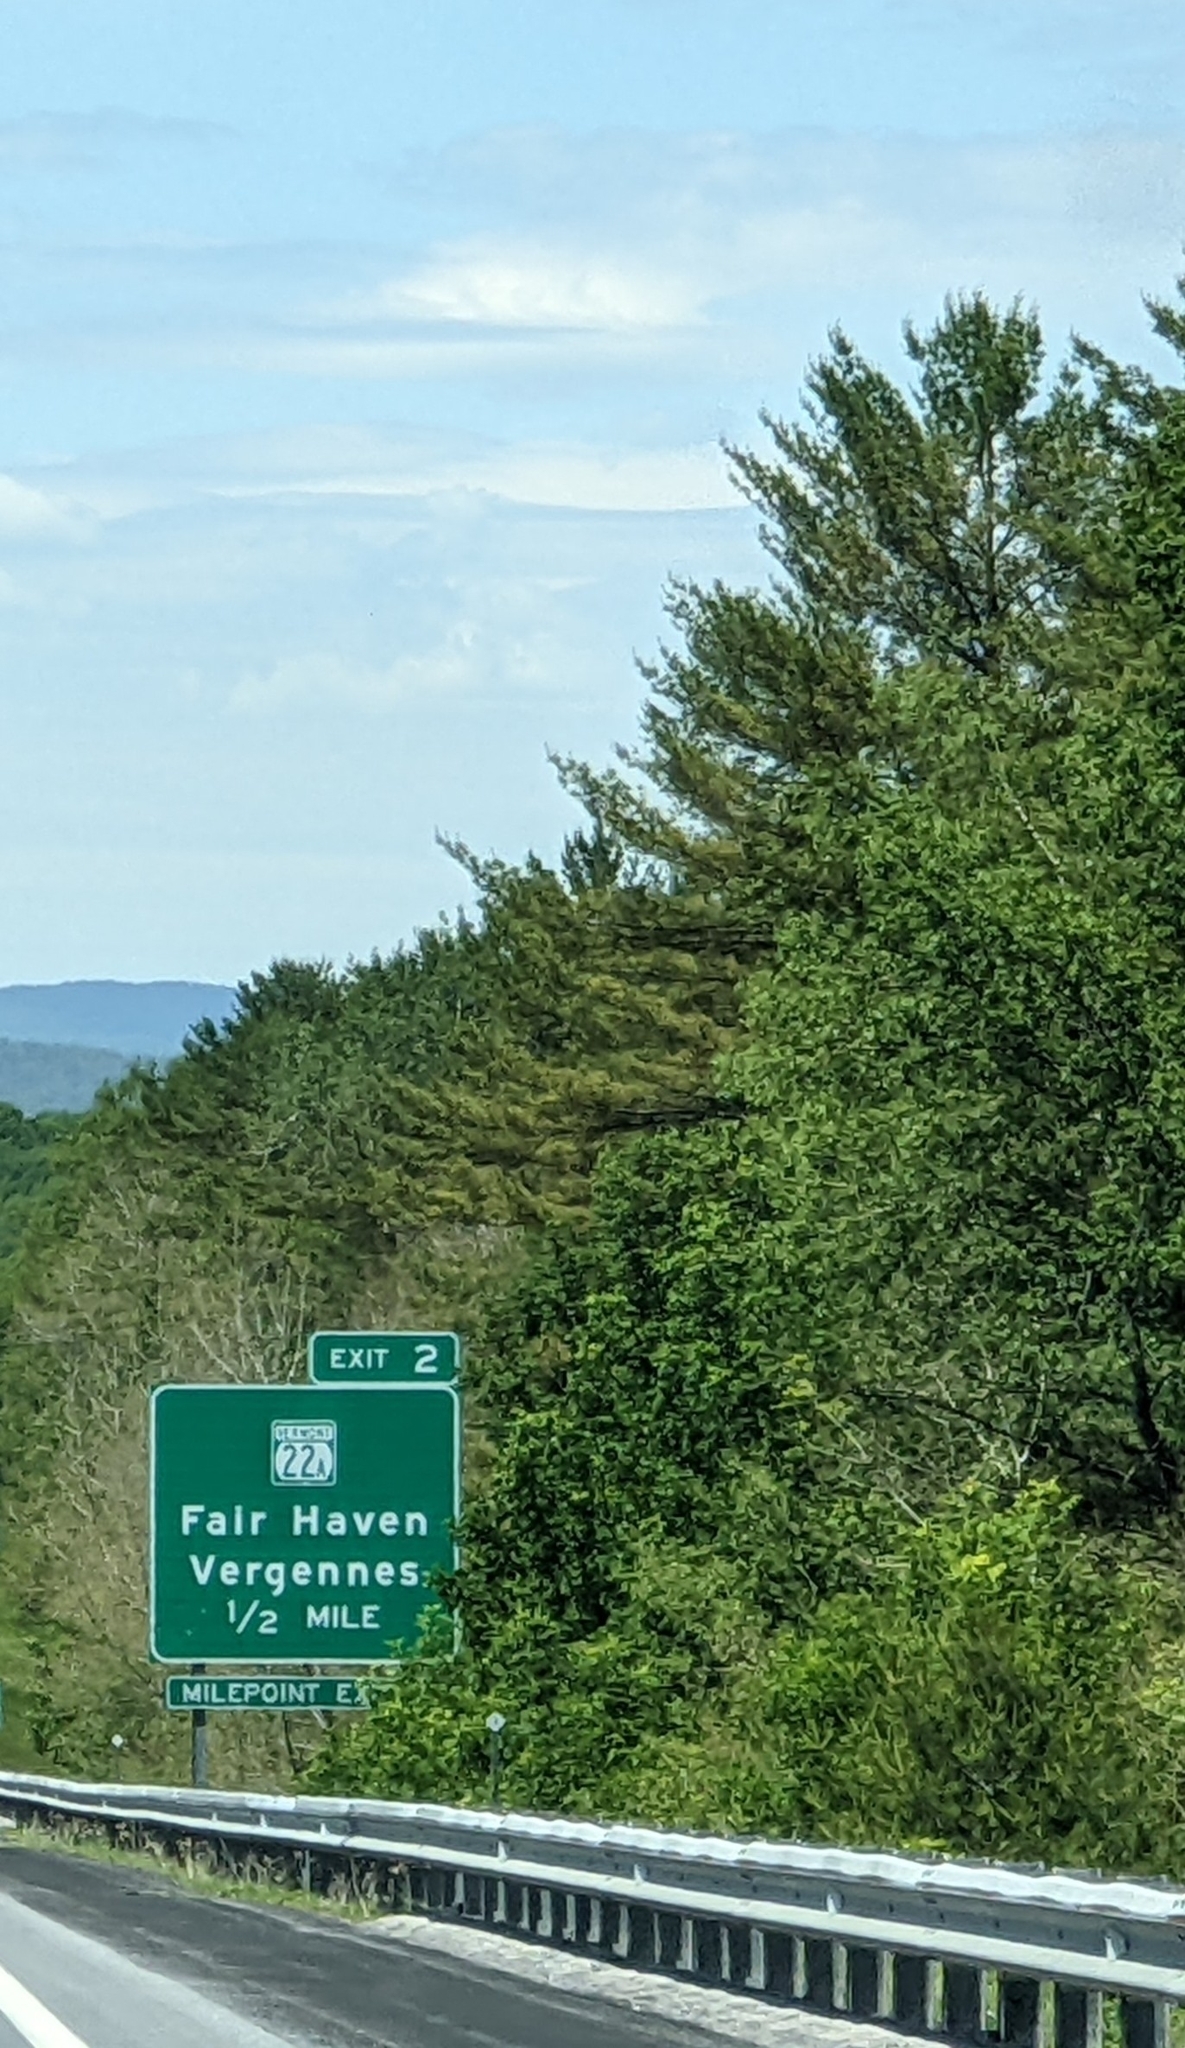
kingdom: Plantae
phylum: Tracheophyta
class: Pinopsida
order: Pinales
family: Pinaceae
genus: Pinus
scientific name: Pinus strobus
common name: Weymouth pine
